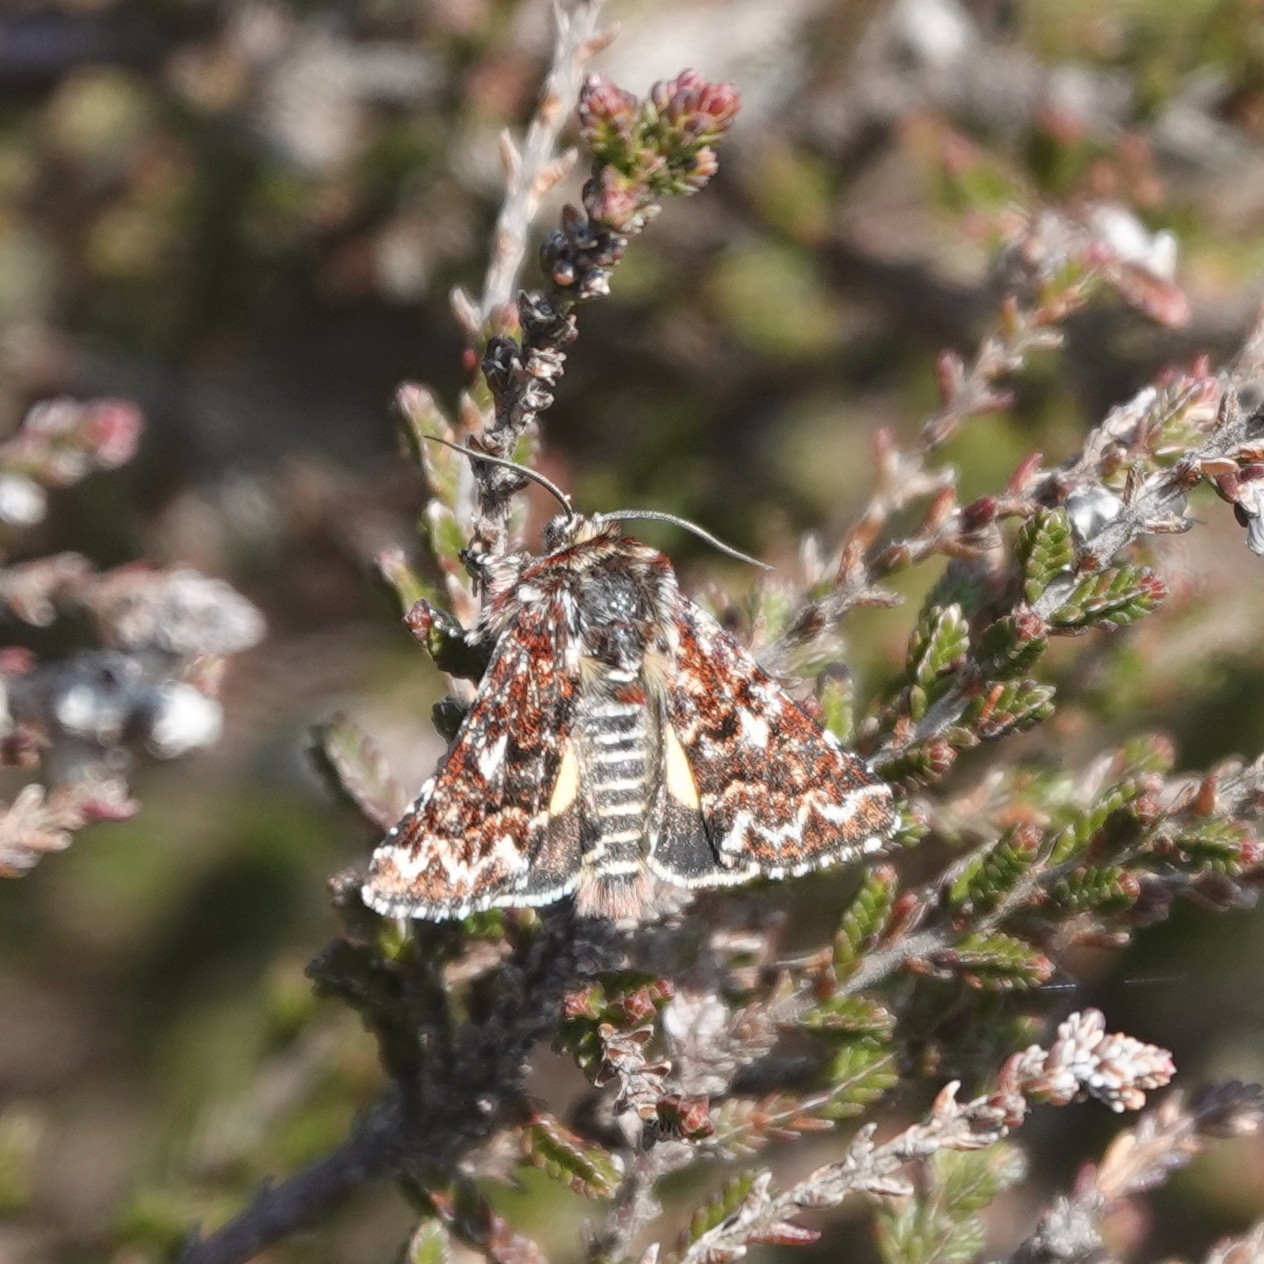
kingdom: Animalia
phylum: Arthropoda
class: Insecta
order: Lepidoptera
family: Noctuidae
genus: Anarta
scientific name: Anarta myrtilli
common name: Beautiful yellow underwing
